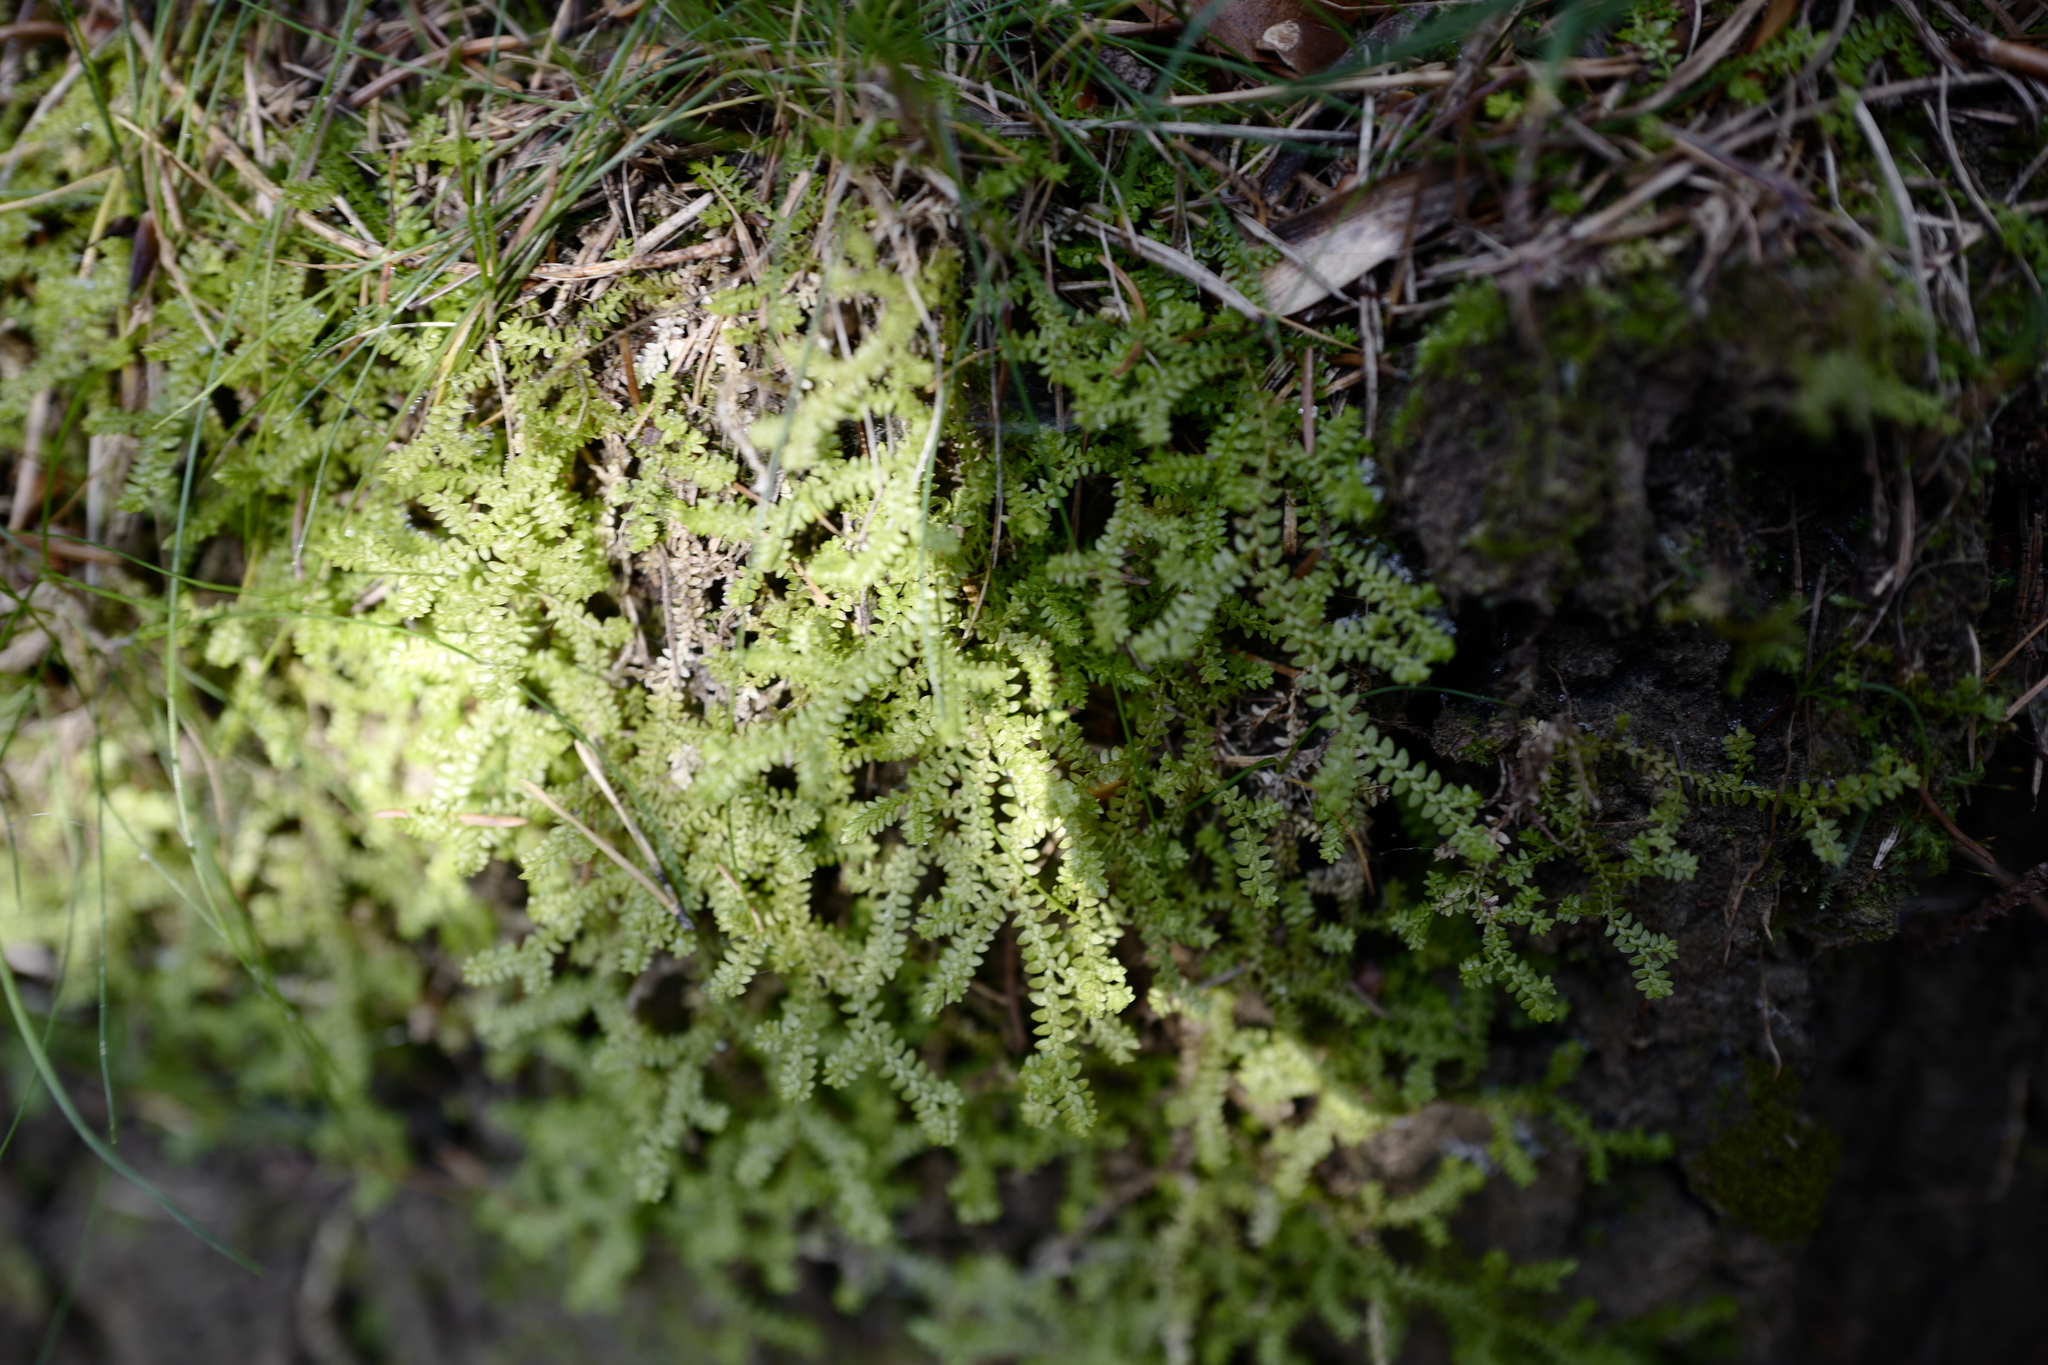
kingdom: Plantae
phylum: Tracheophyta
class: Lycopodiopsida
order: Selaginellales
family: Selaginellaceae
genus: Selaginella
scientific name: Selaginella helvetica
